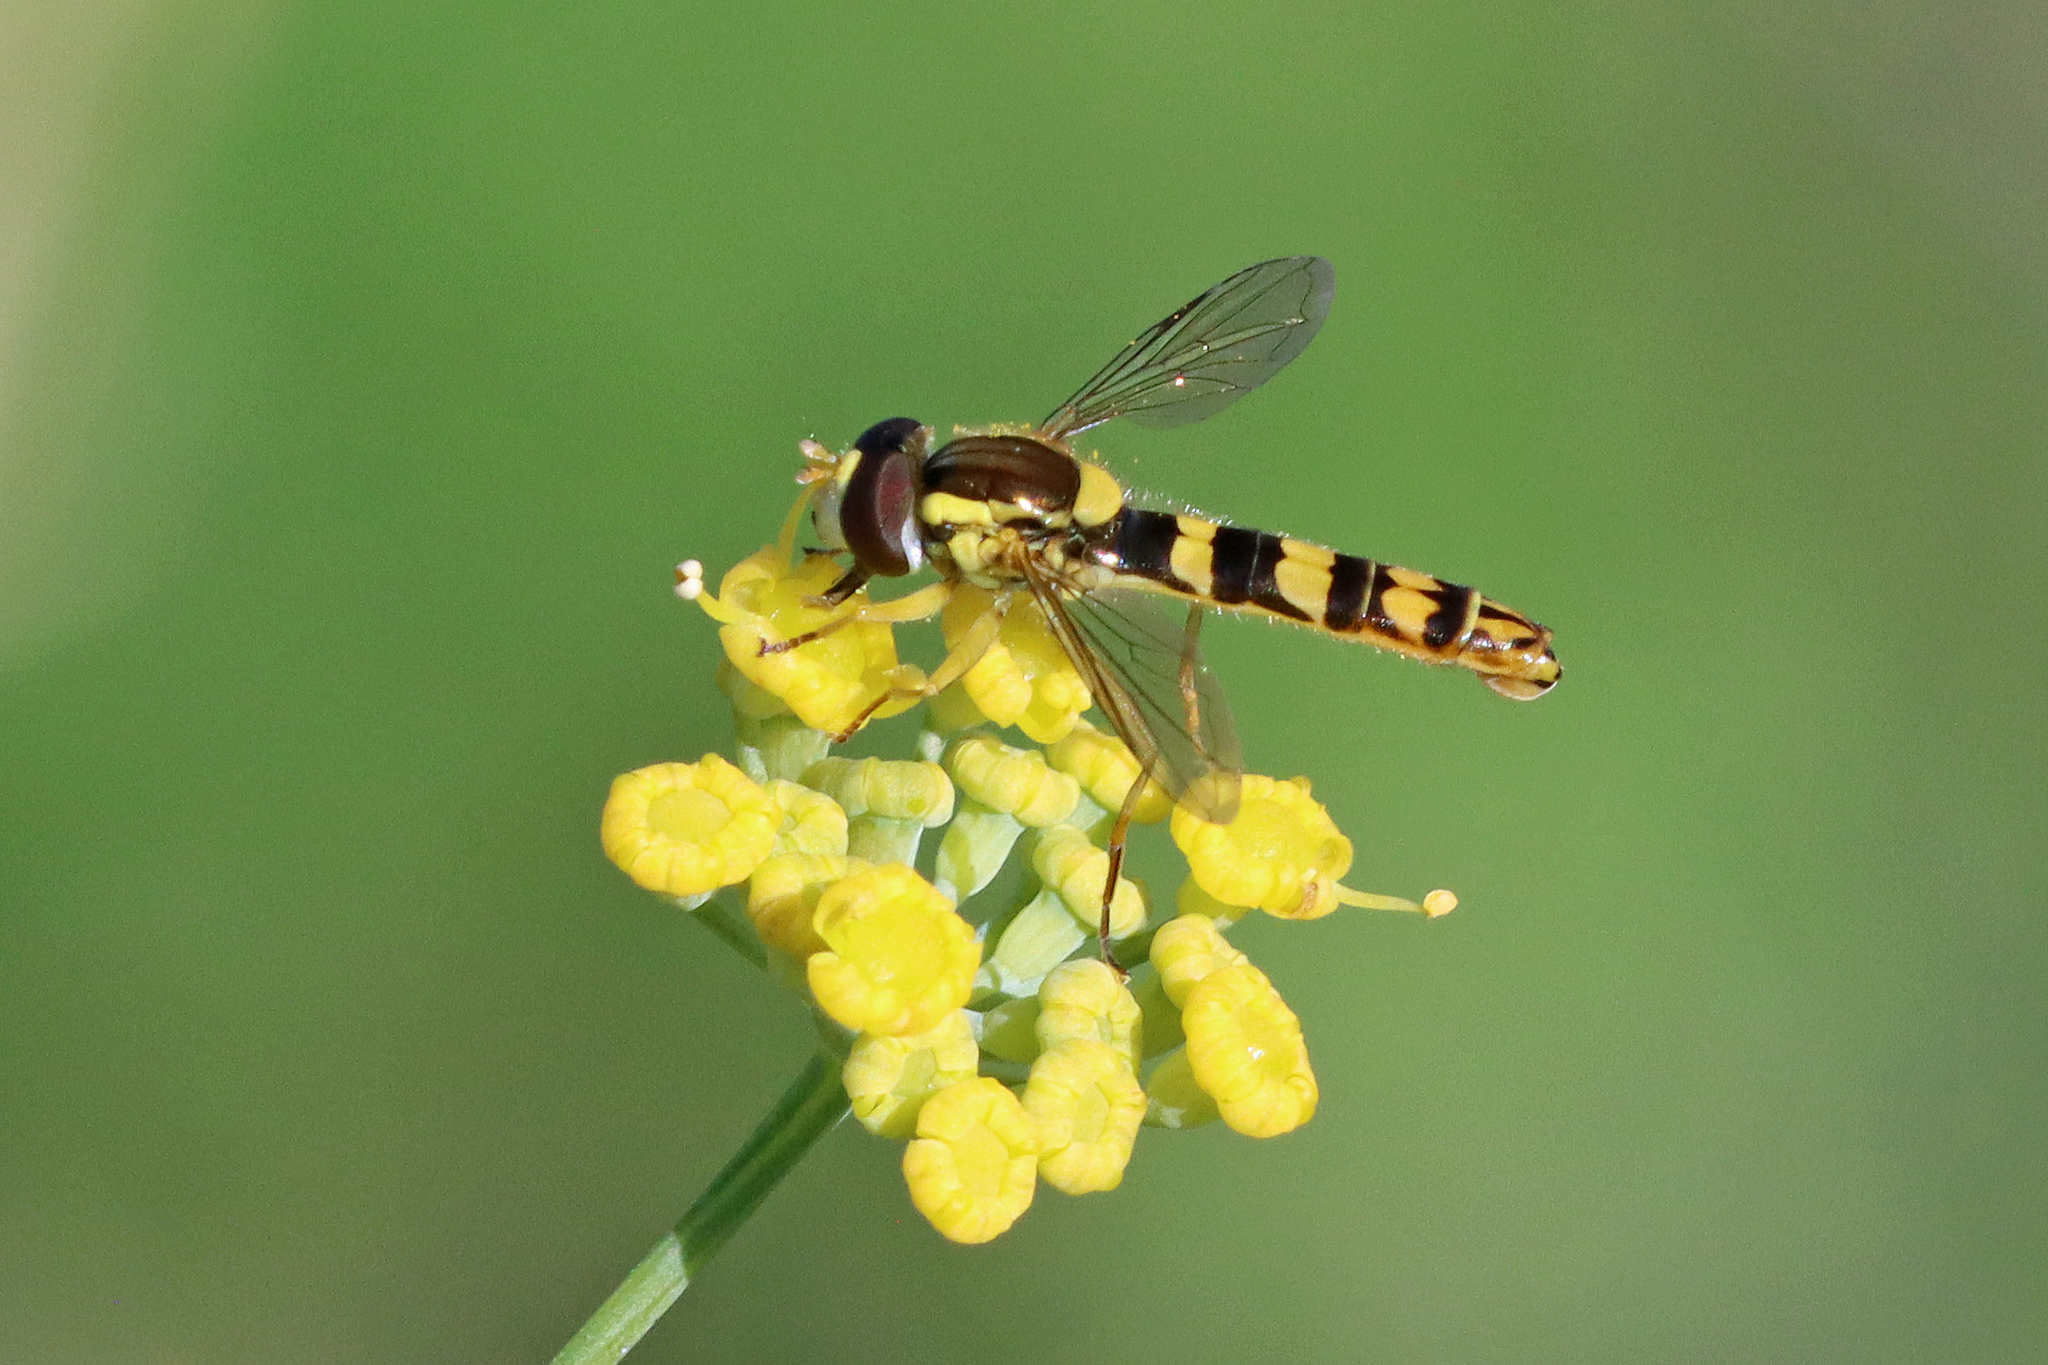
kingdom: Animalia
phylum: Arthropoda
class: Insecta
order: Diptera
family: Syrphidae
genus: Sphaerophoria
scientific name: Sphaerophoria scripta
